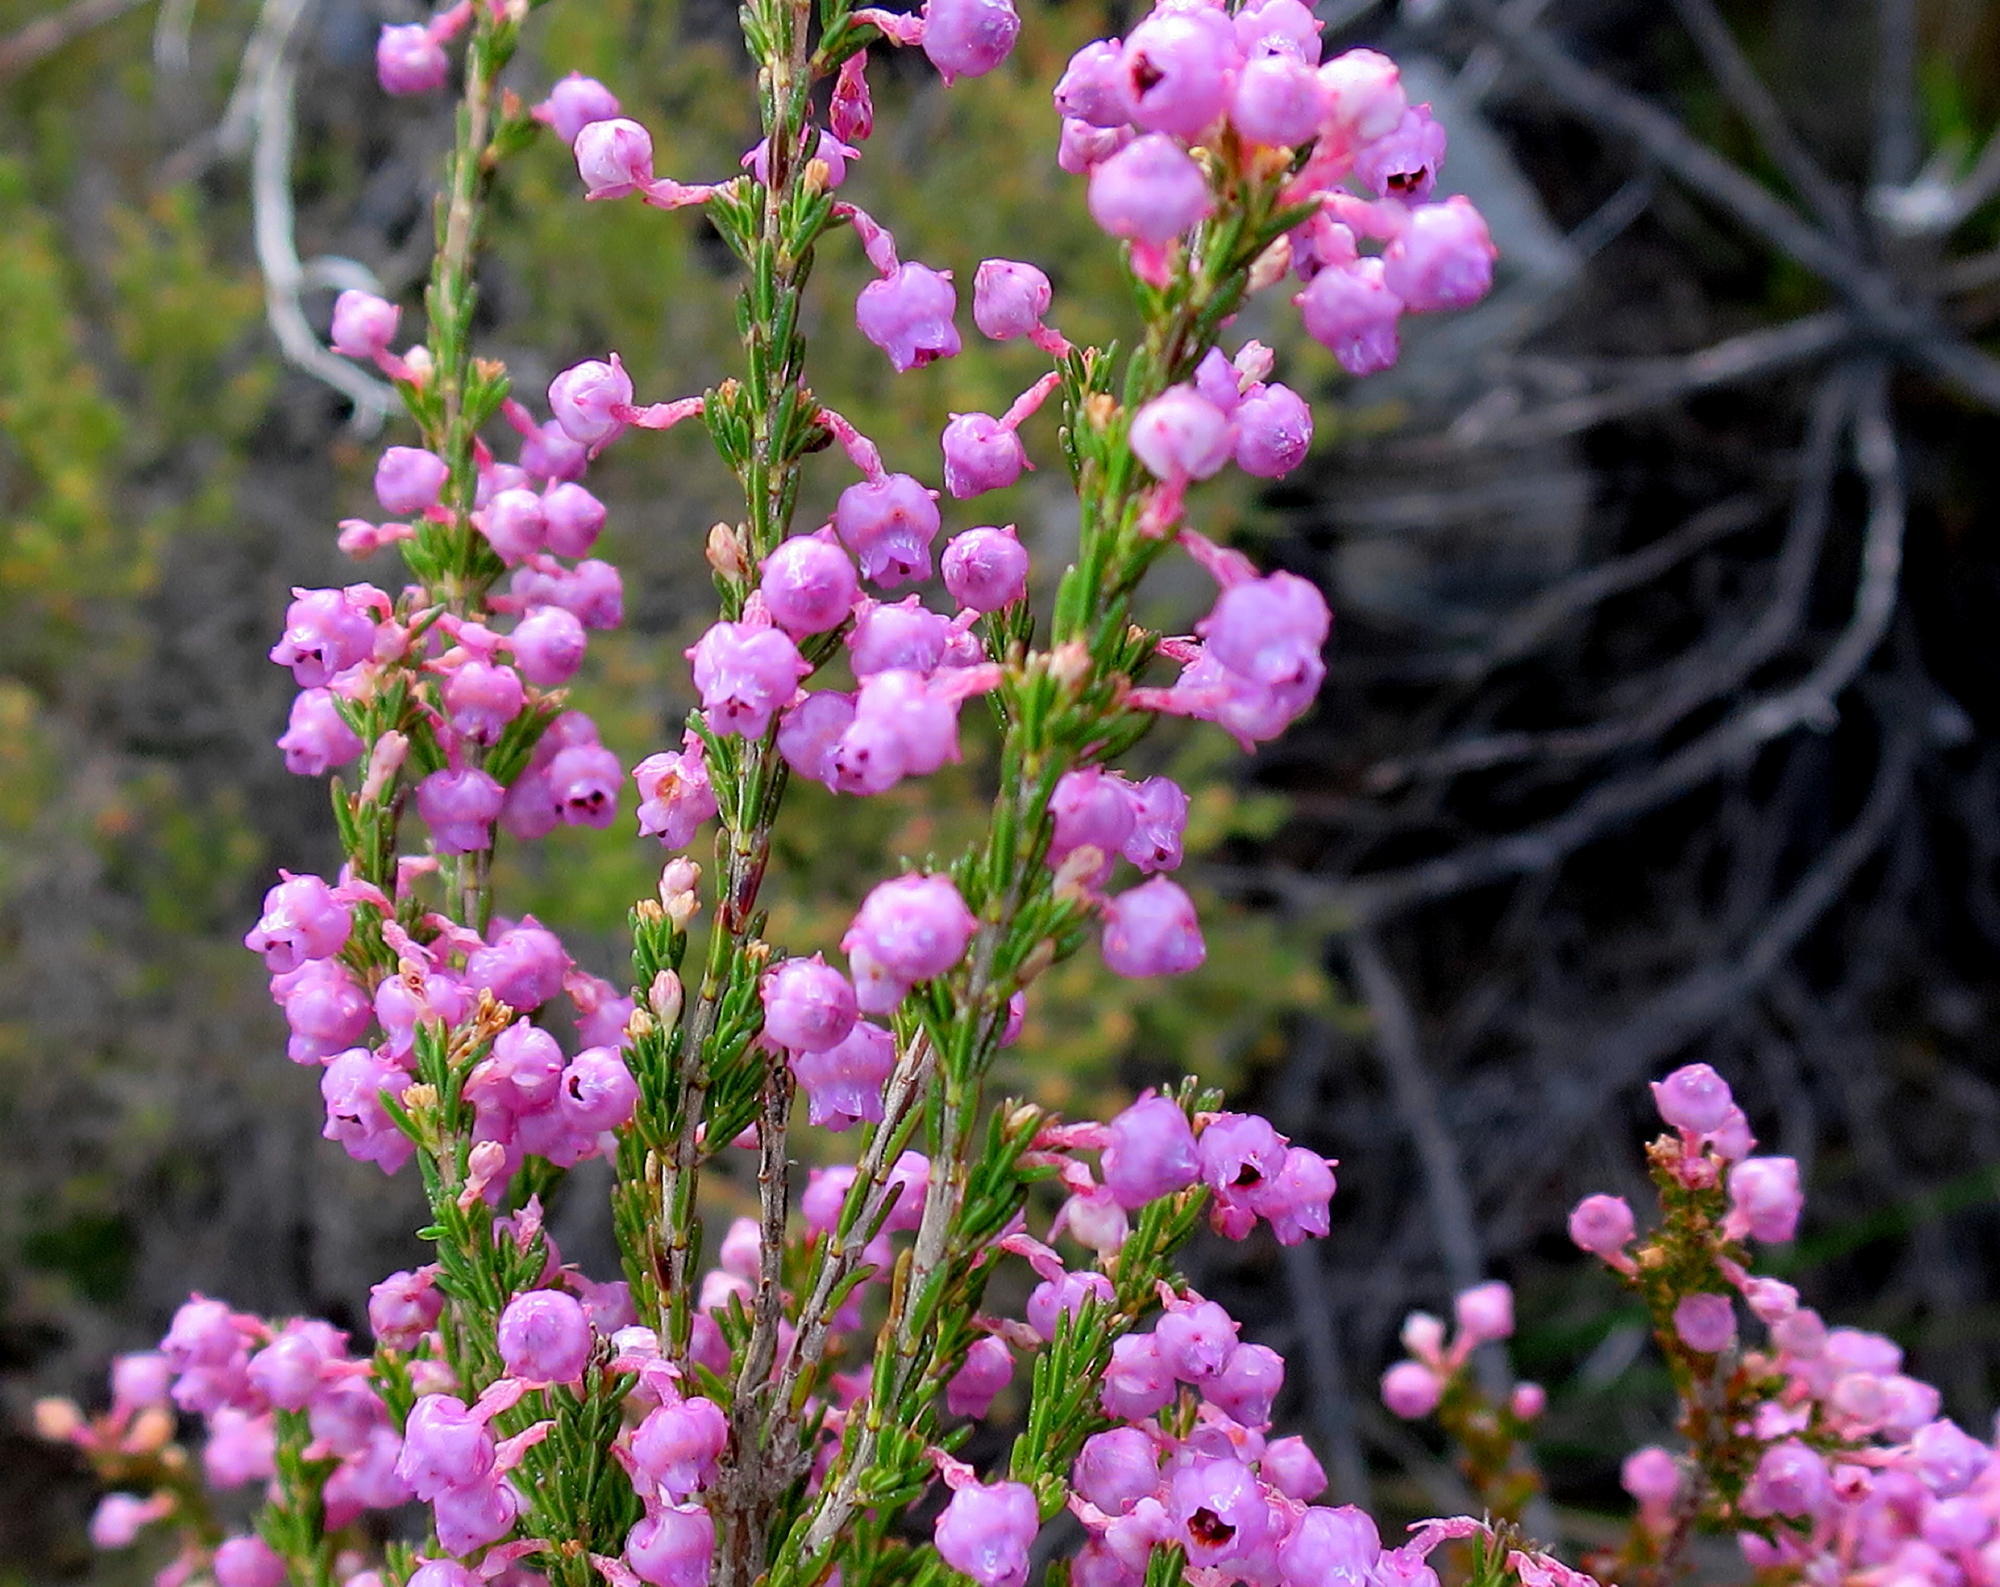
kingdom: Plantae
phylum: Tracheophyta
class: Magnoliopsida
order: Ericales
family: Ericaceae
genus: Erica
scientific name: Erica selaginifolia
